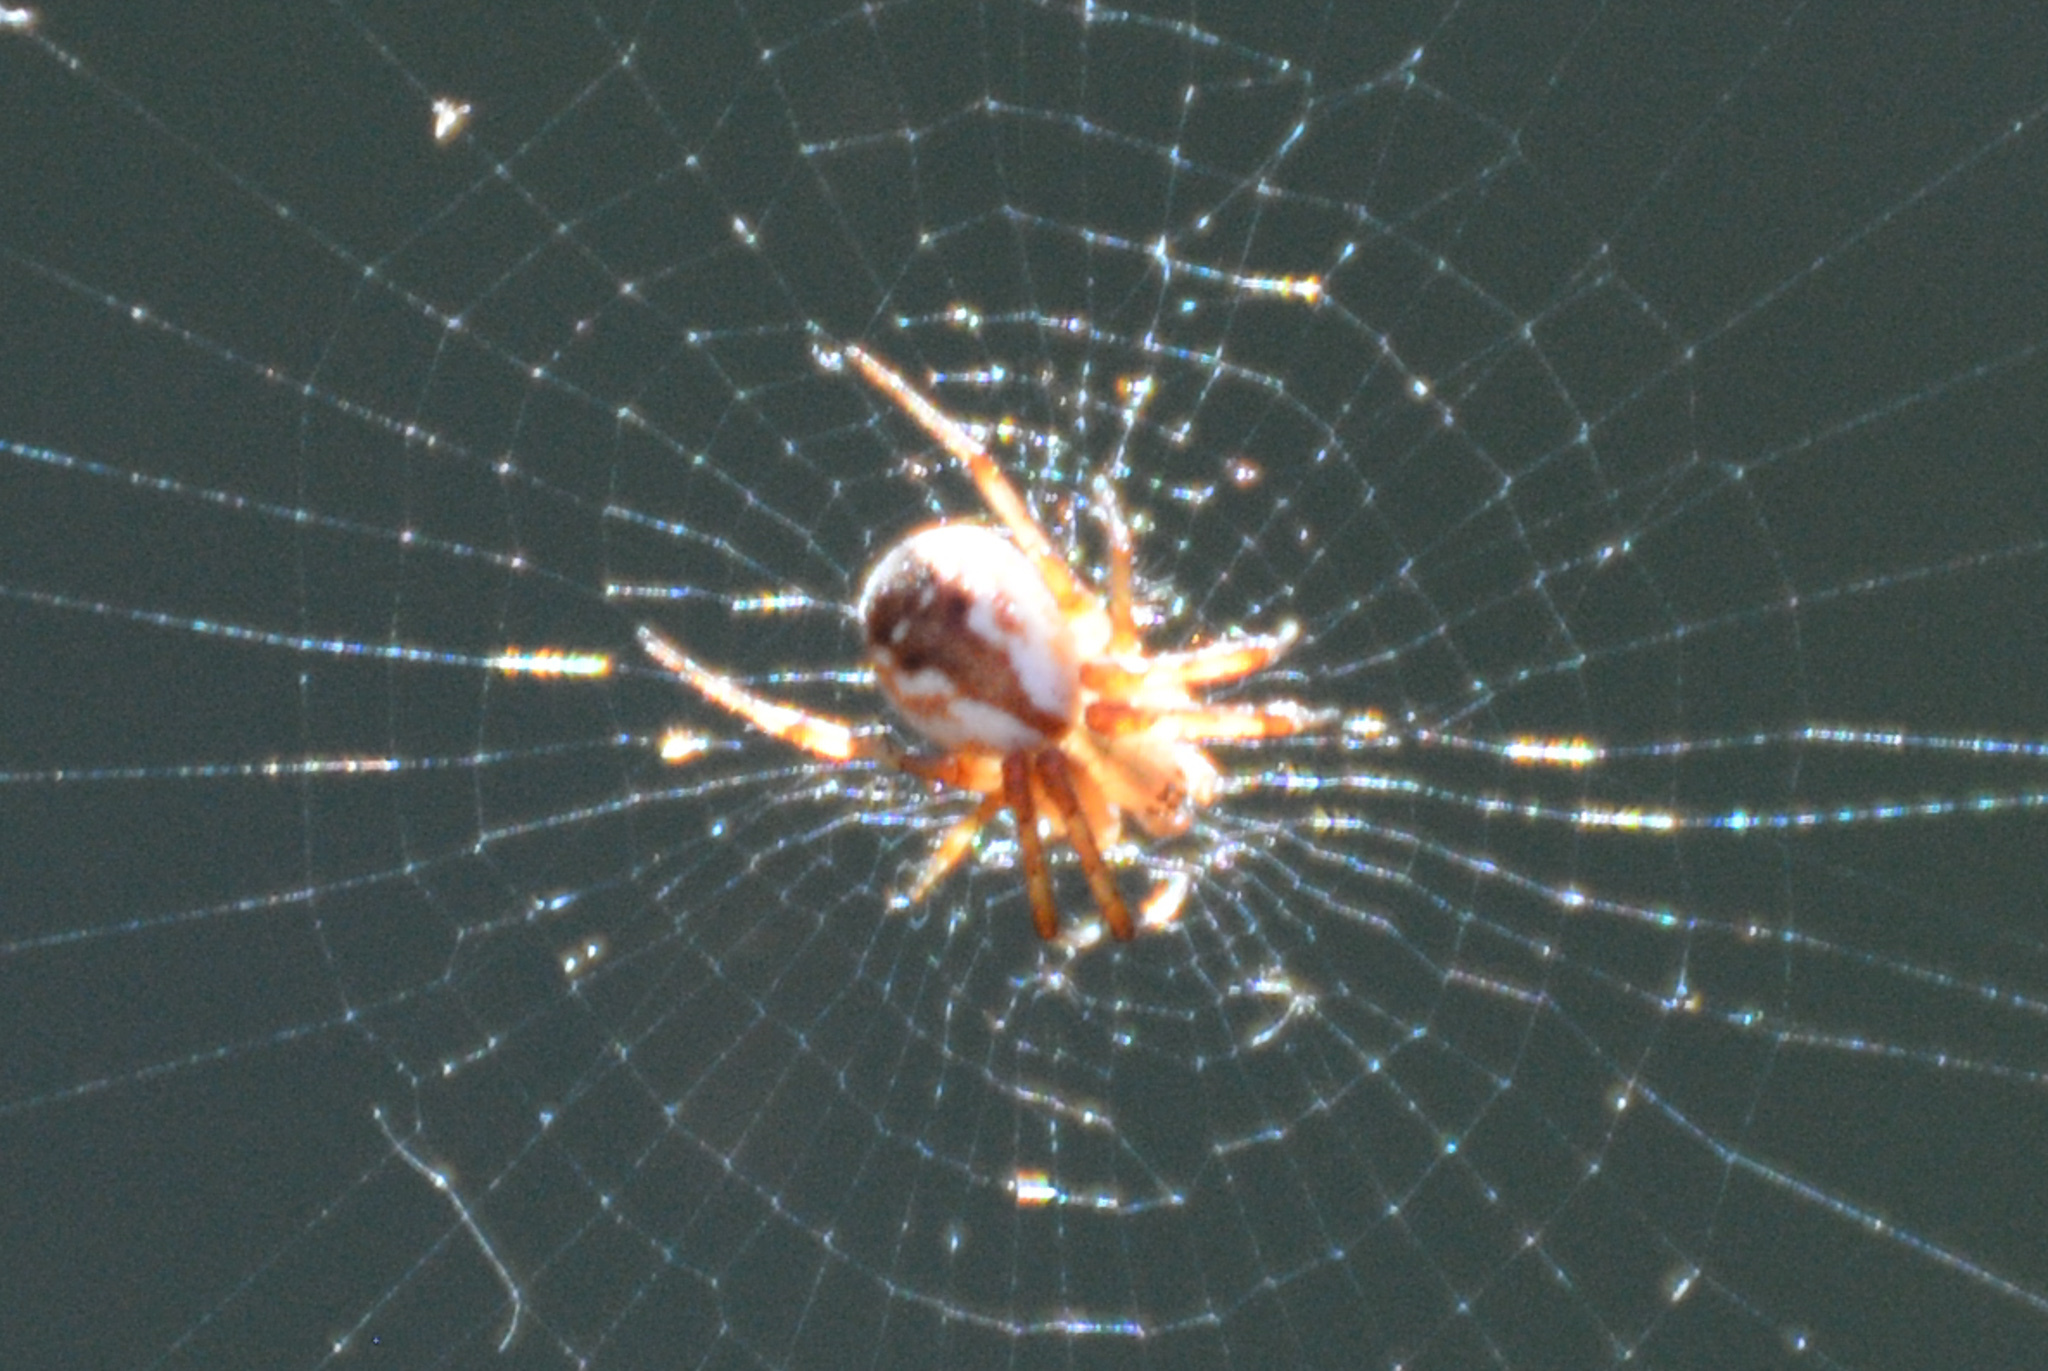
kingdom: Animalia
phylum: Arthropoda
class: Arachnida
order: Araneae
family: Araneidae
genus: Mangora
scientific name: Mangora placida
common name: Tuft-legged orbweaver
